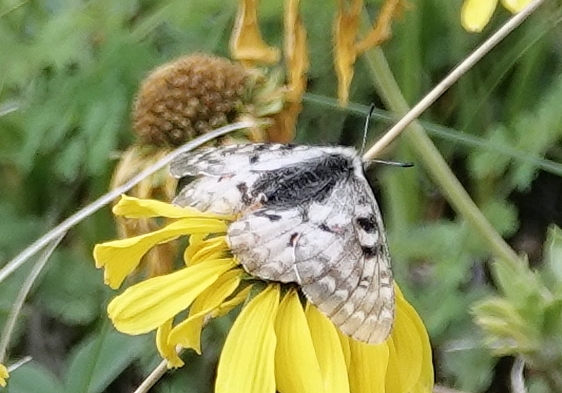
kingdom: Animalia
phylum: Arthropoda
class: Insecta
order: Lepidoptera
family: Papilionidae
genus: Parnassius
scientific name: Parnassius smintheus
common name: Mountain parnassian
